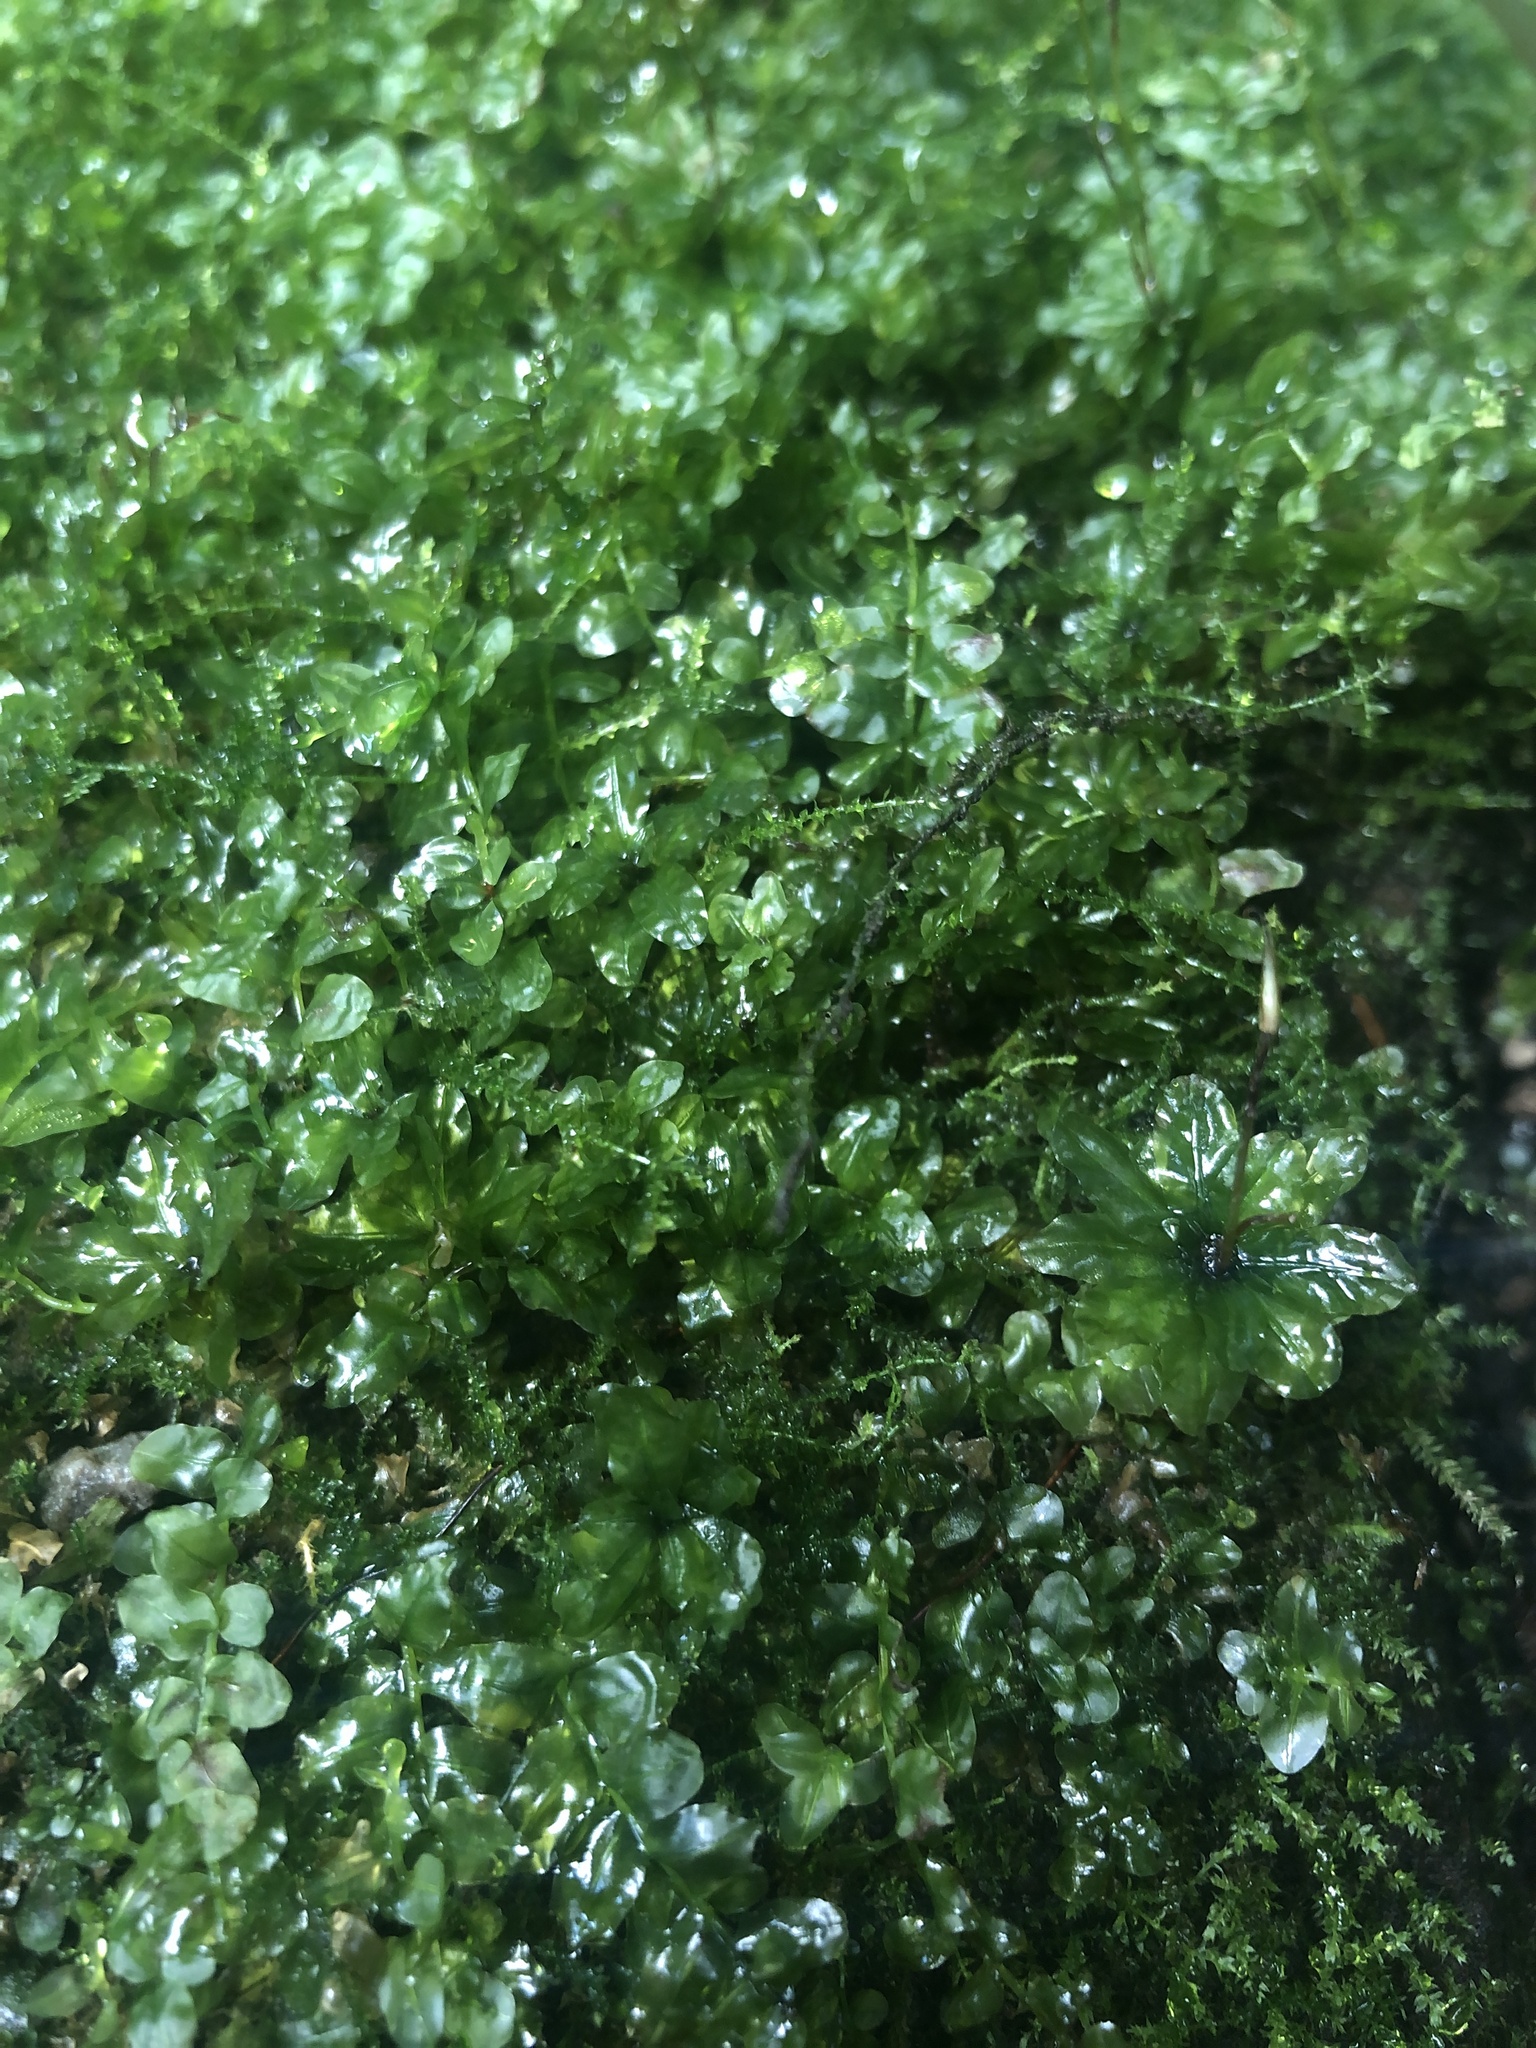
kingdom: Plantae
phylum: Bryophyta
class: Bryopsida
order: Bryales
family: Mniaceae
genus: Plagiomnium
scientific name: Plagiomnium novae-zealandiae
